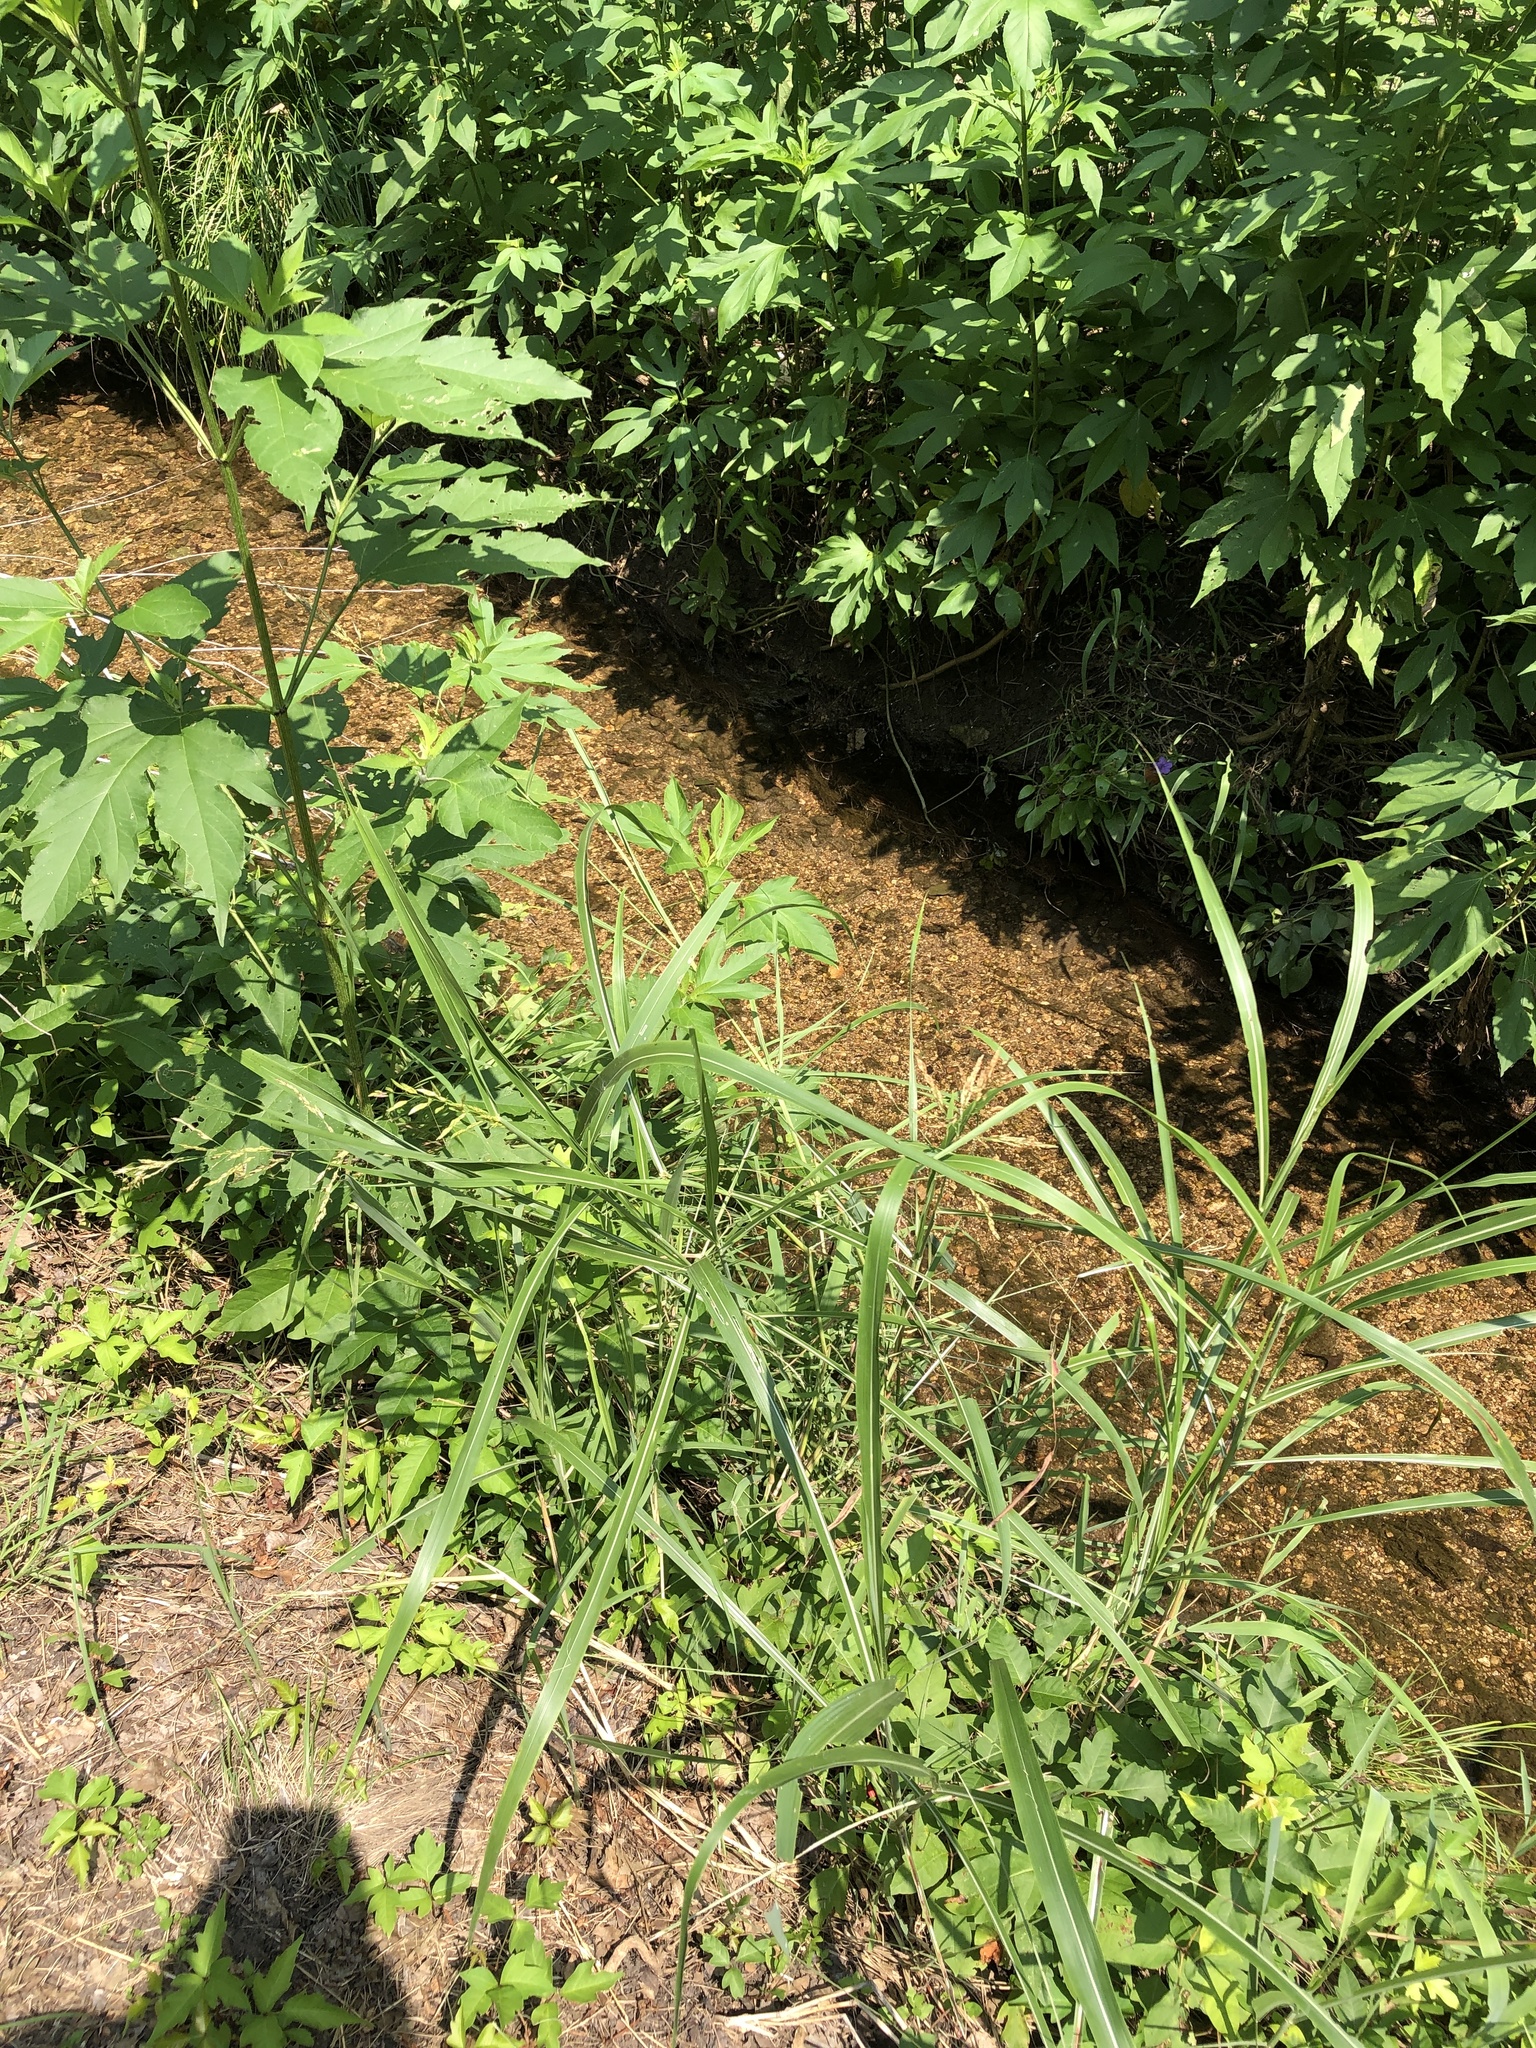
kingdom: Plantae
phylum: Tracheophyta
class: Liliopsida
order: Poales
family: Poaceae
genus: Sorghum
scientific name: Sorghum halepense
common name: Johnson-grass
